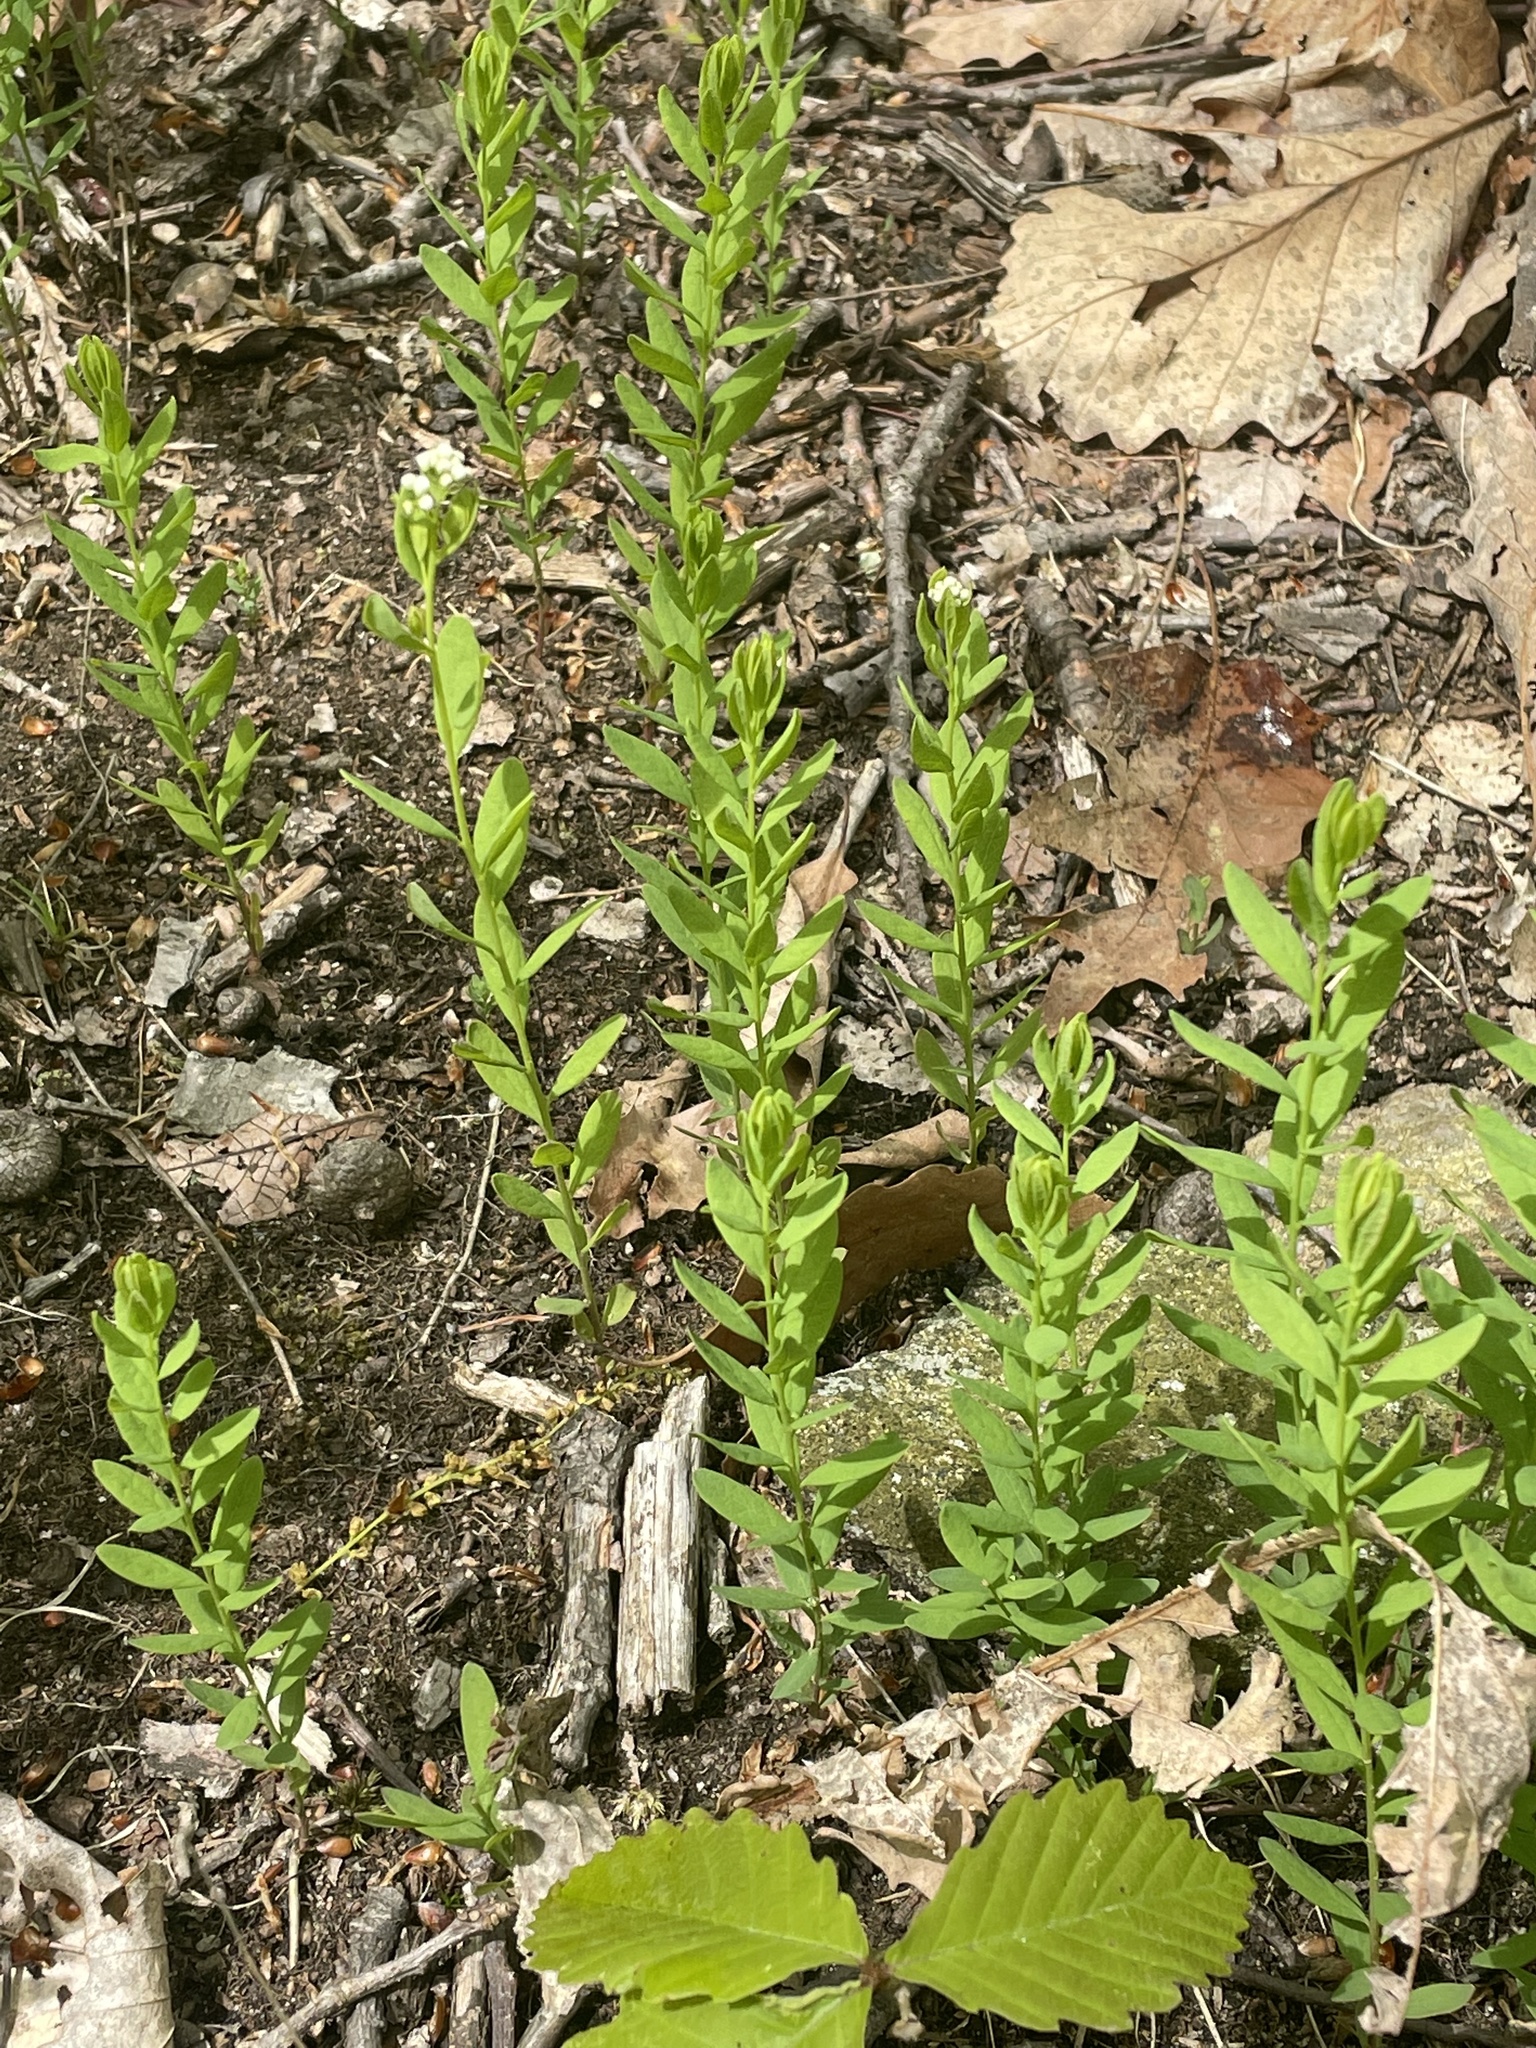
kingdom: Plantae
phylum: Tracheophyta
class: Magnoliopsida
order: Santalales
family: Comandraceae
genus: Comandra
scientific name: Comandra umbellata
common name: Bastard toadflax
